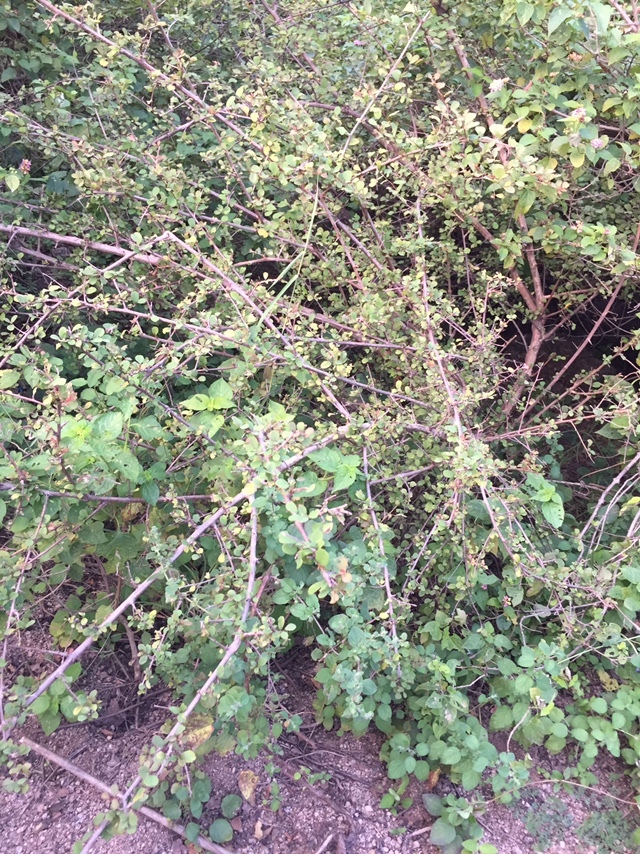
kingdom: Plantae
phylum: Tracheophyta
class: Magnoliopsida
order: Malpighiales
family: Phyllanthaceae
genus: Flueggea
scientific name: Flueggea leucopyrus
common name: Bushweed
